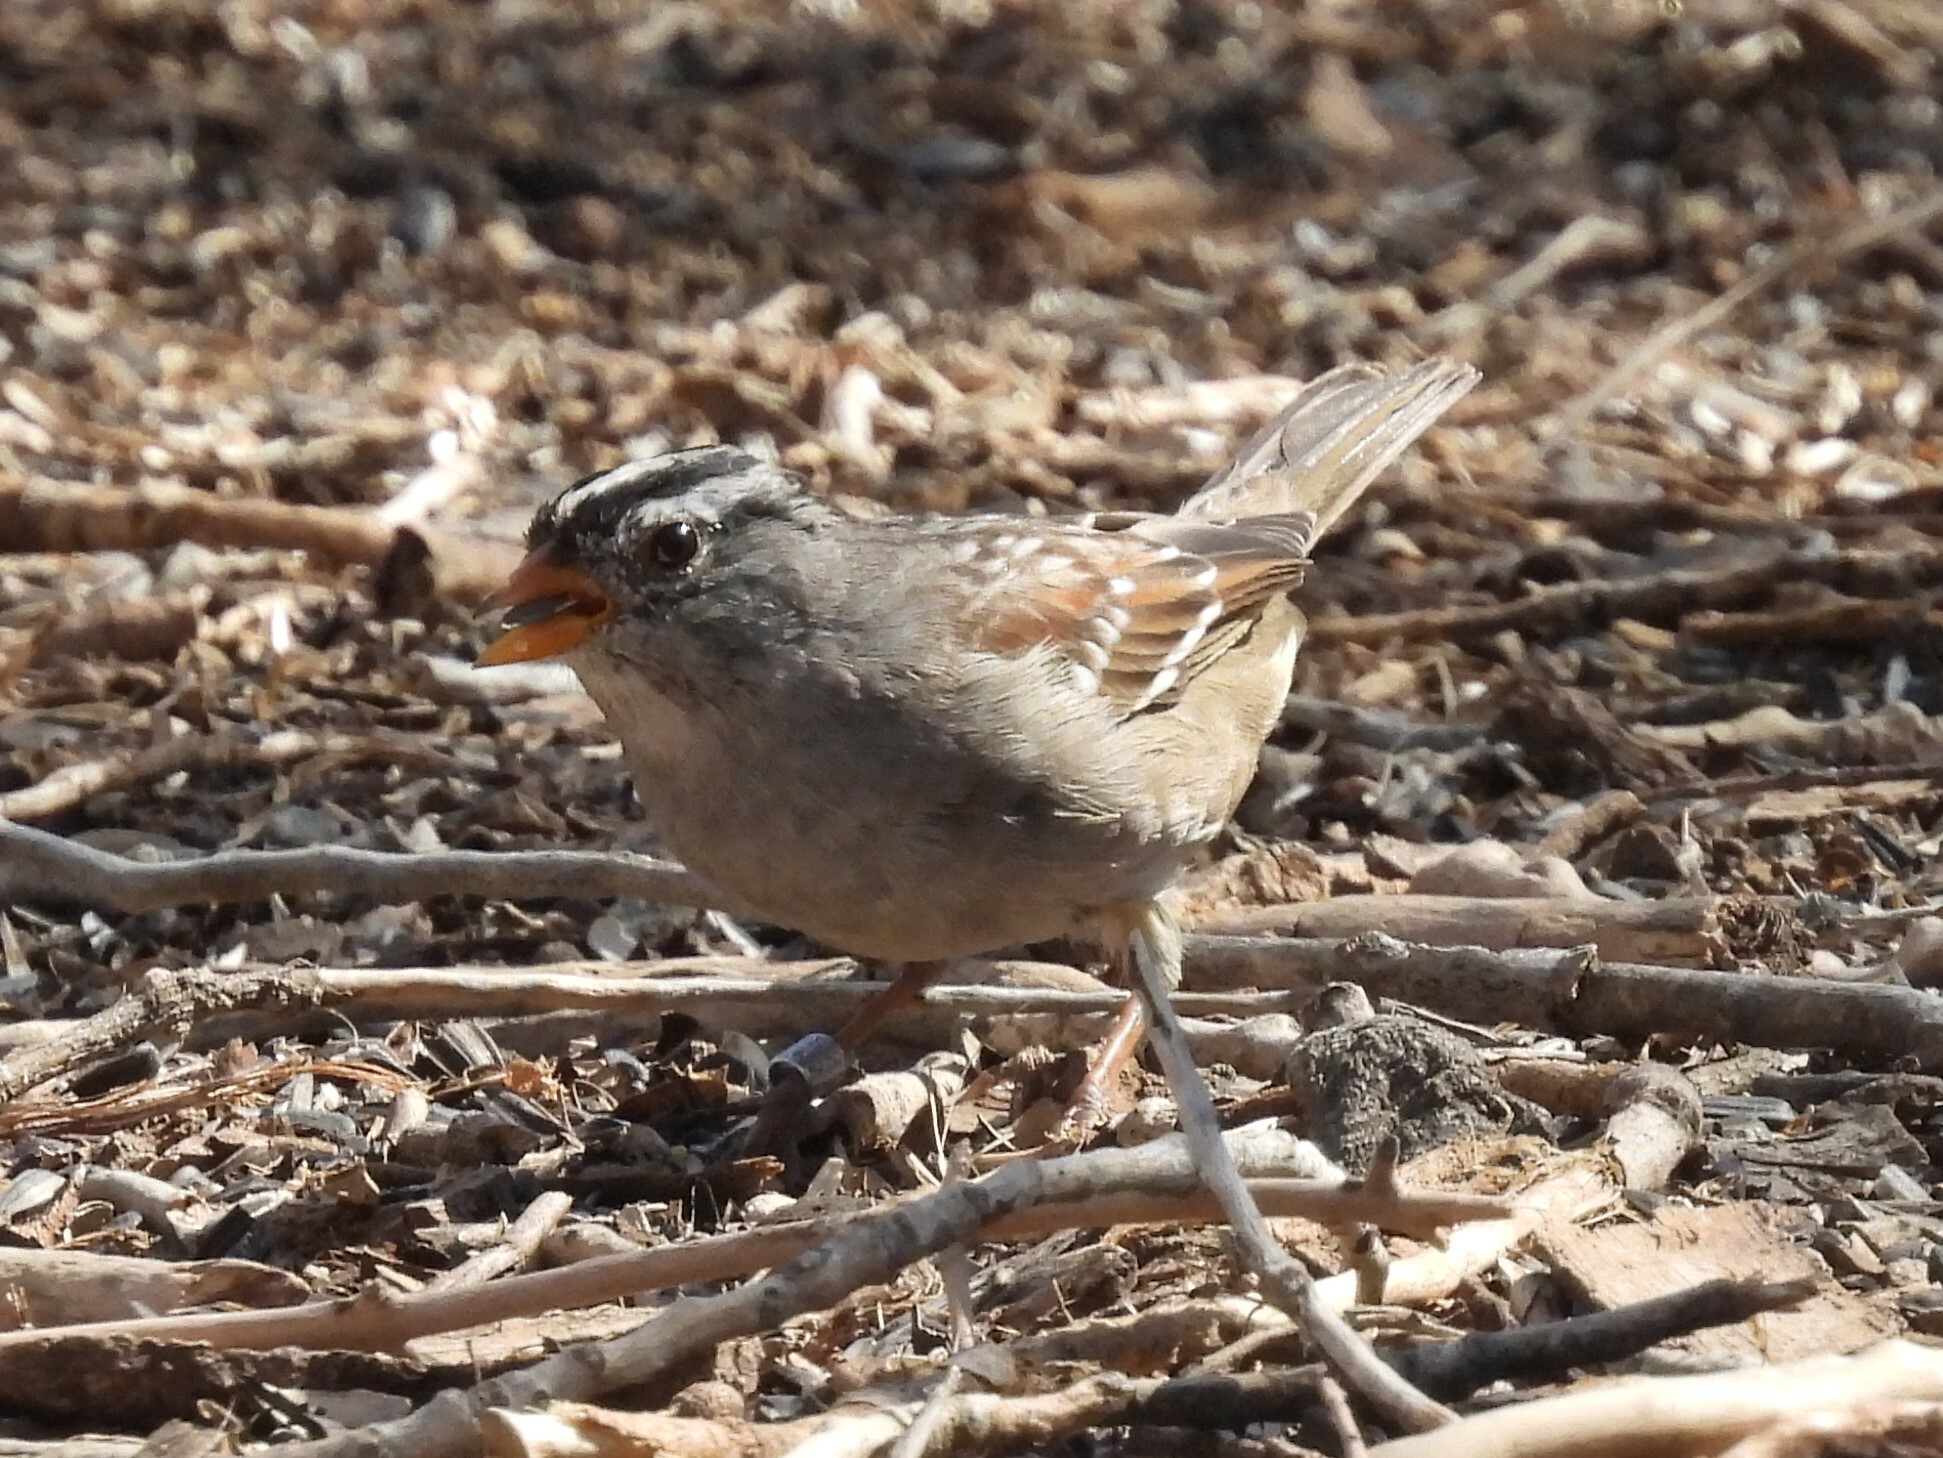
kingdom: Animalia
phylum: Chordata
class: Aves
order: Passeriformes
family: Passerellidae
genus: Zonotrichia
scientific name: Zonotrichia leucophrys
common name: White-crowned sparrow
